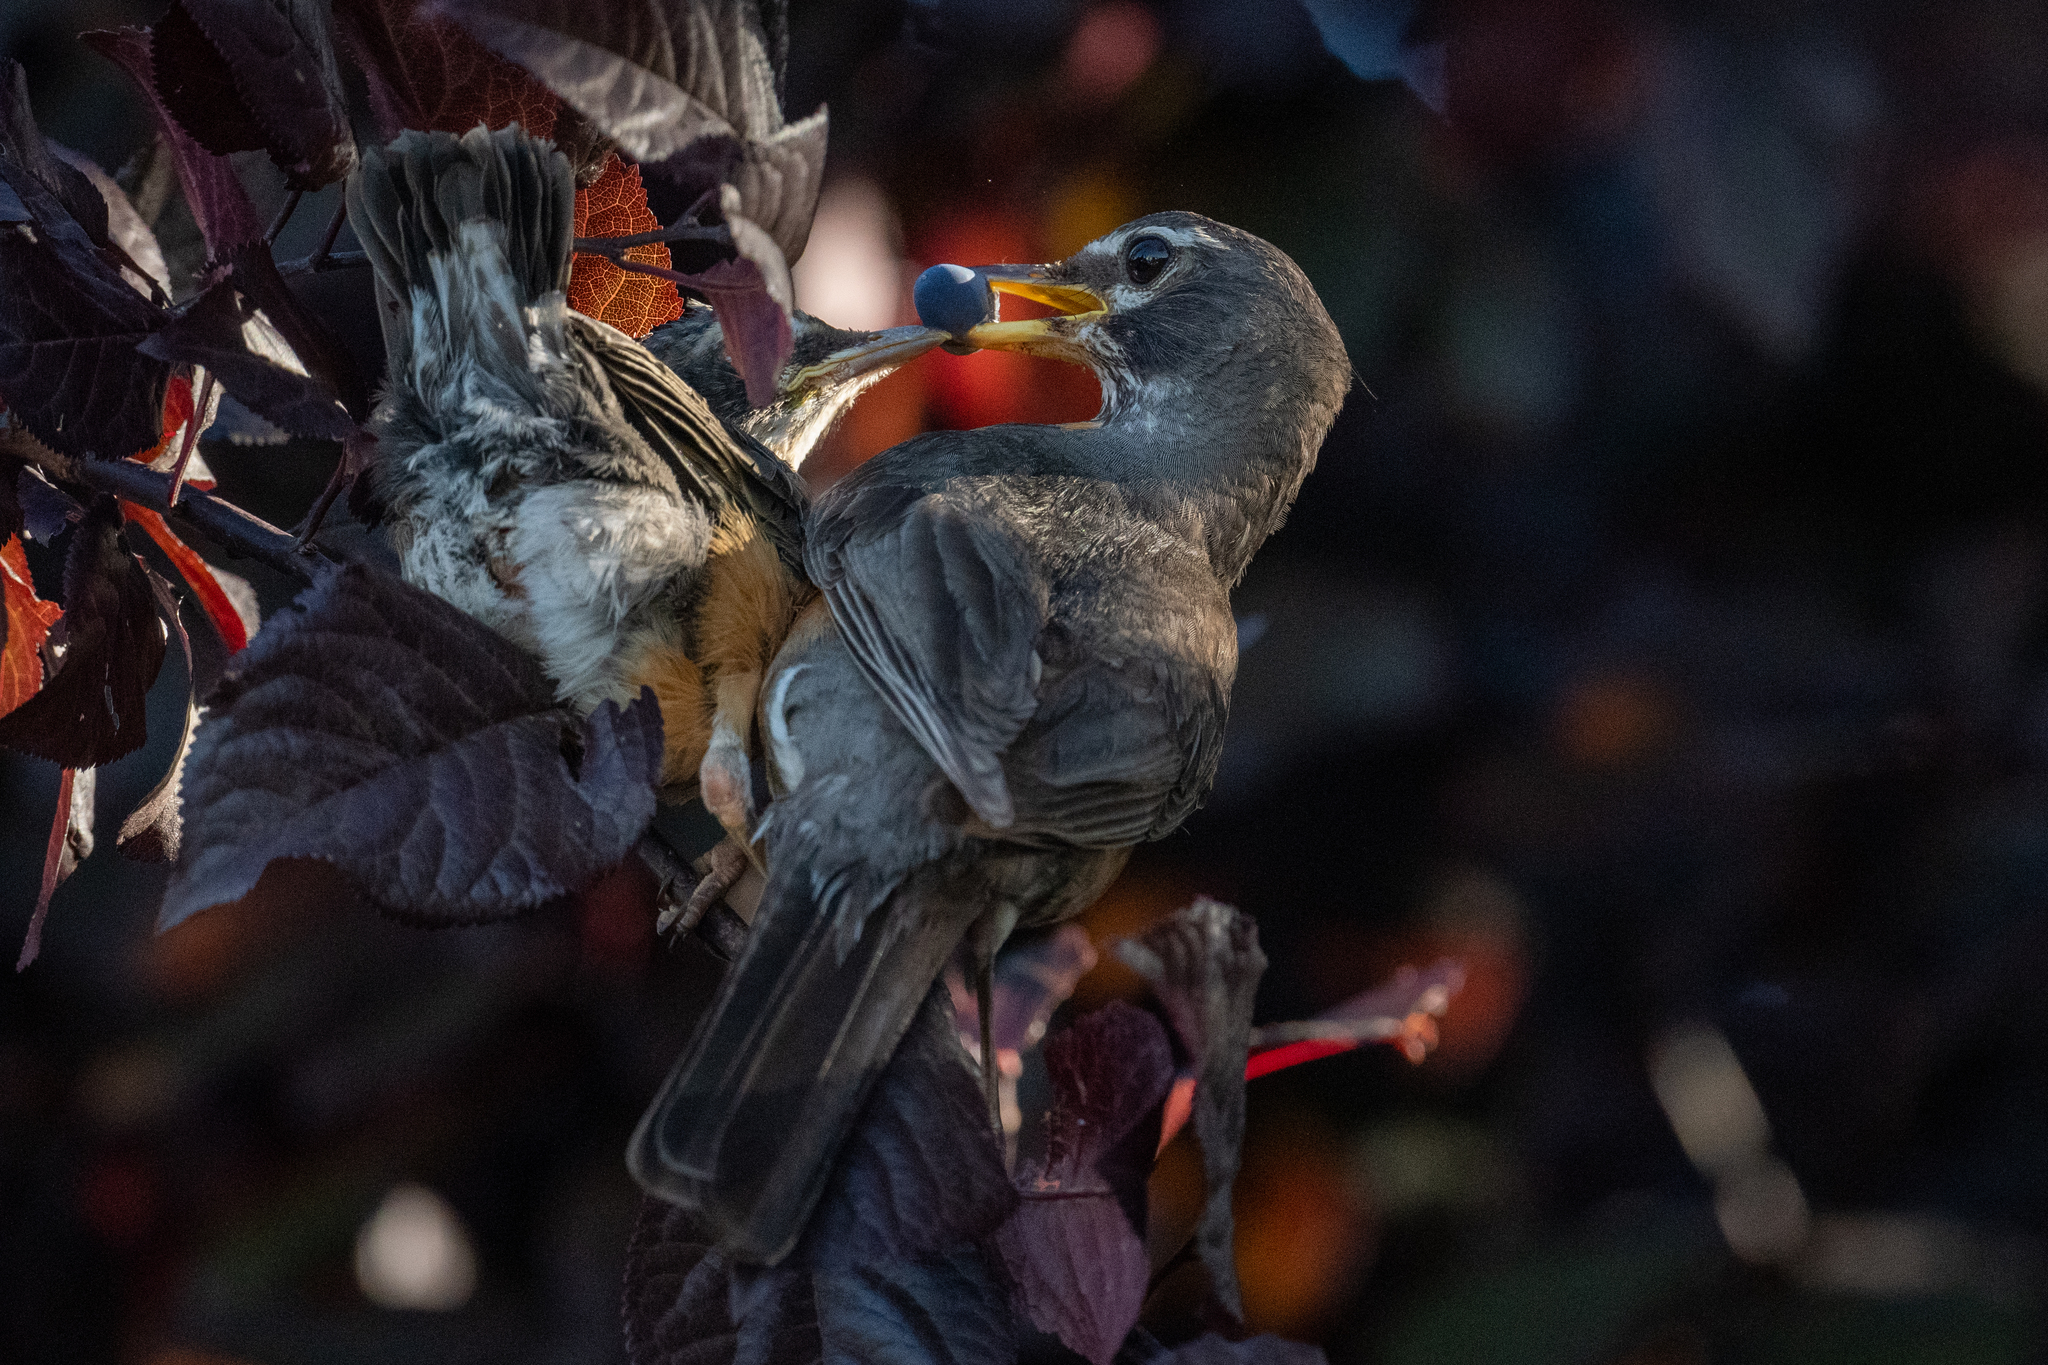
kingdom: Animalia
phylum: Chordata
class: Aves
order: Passeriformes
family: Turdidae
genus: Turdus
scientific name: Turdus migratorius
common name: American robin
